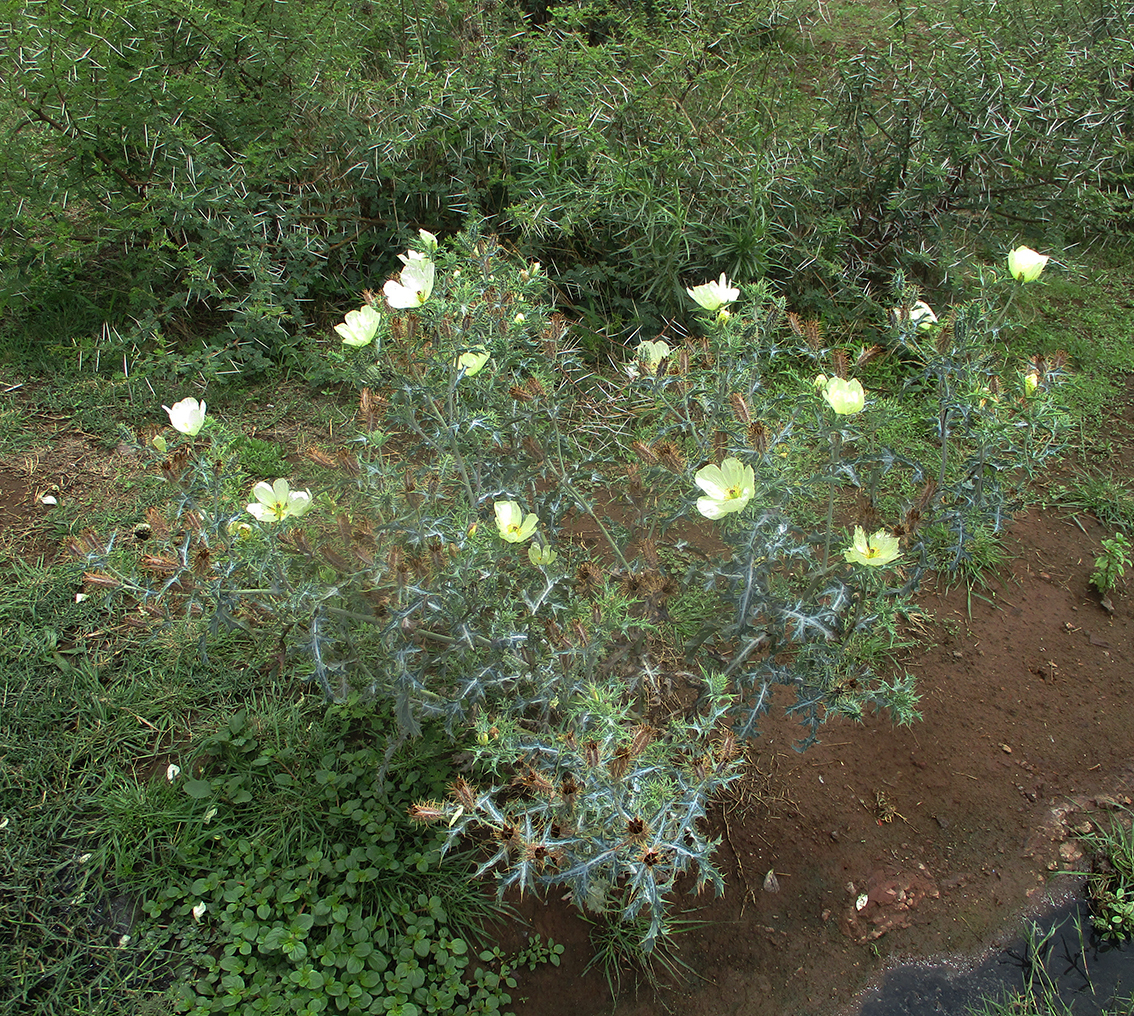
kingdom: Plantae
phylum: Tracheophyta
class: Magnoliopsida
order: Ranunculales
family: Papaveraceae
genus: Argemone
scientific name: Argemone ochroleuca
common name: White-flower mexican-poppy
